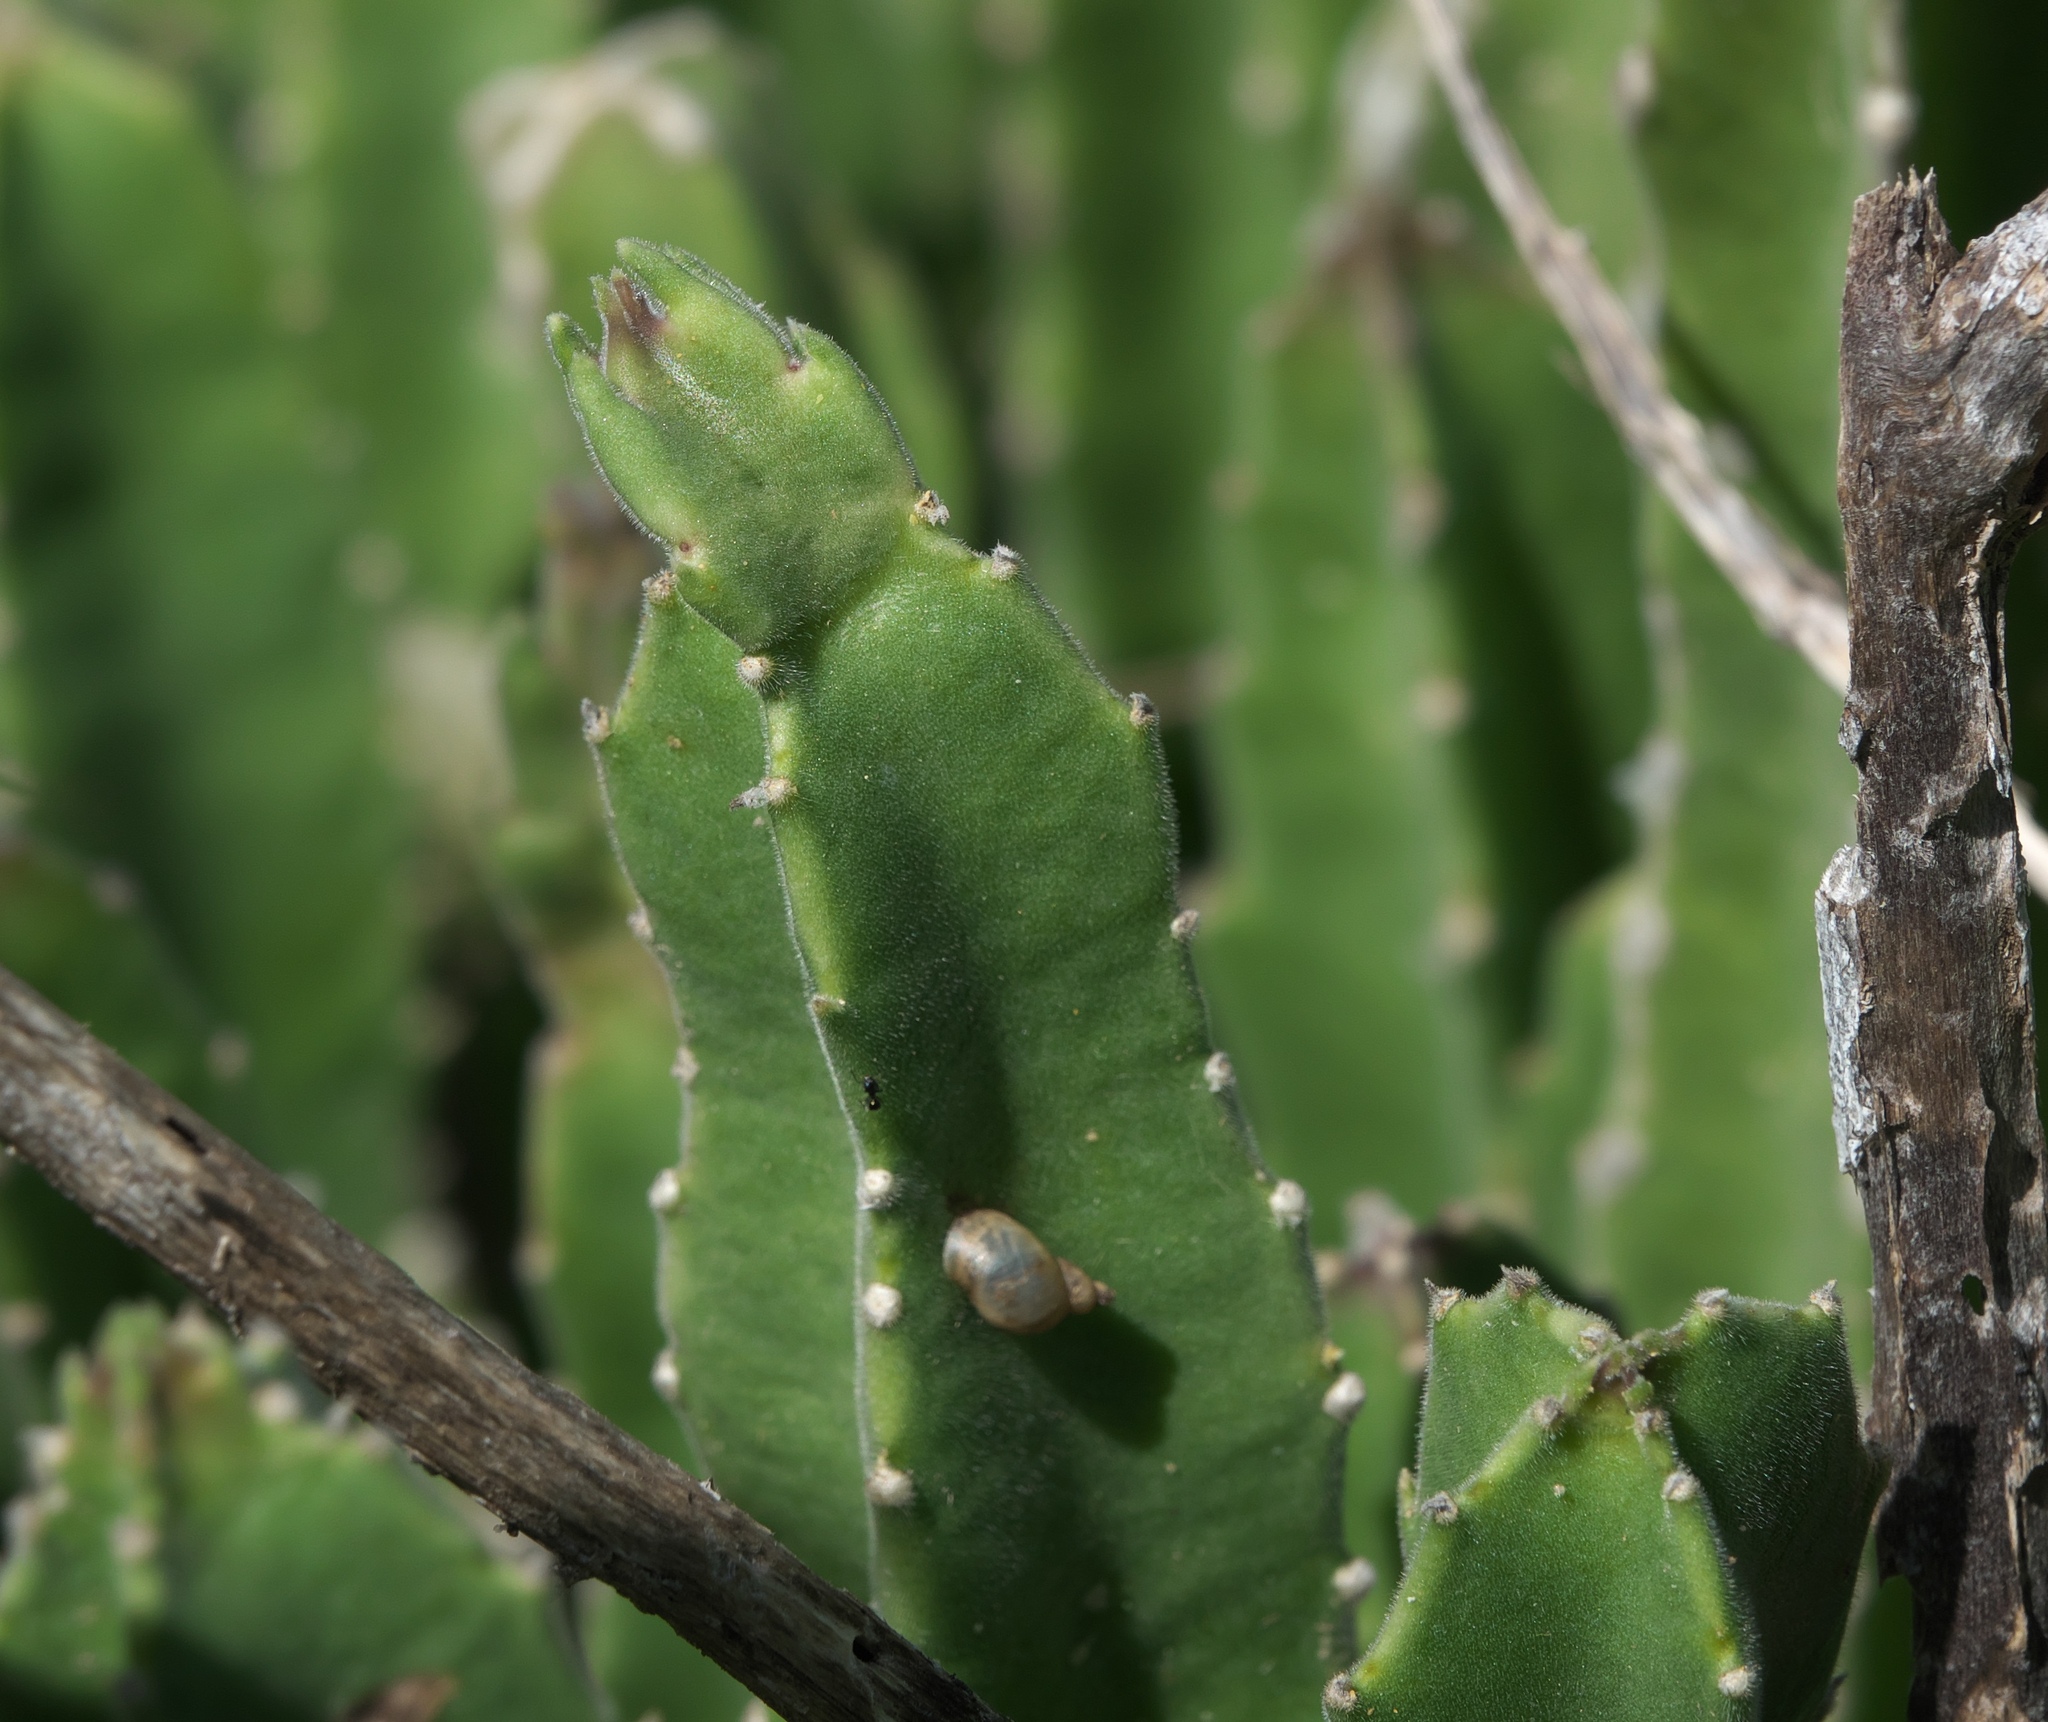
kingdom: Plantae
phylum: Tracheophyta
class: Magnoliopsida
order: Gentianales
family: Apocynaceae
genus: Ceropegia
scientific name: Ceropegia gigantea
